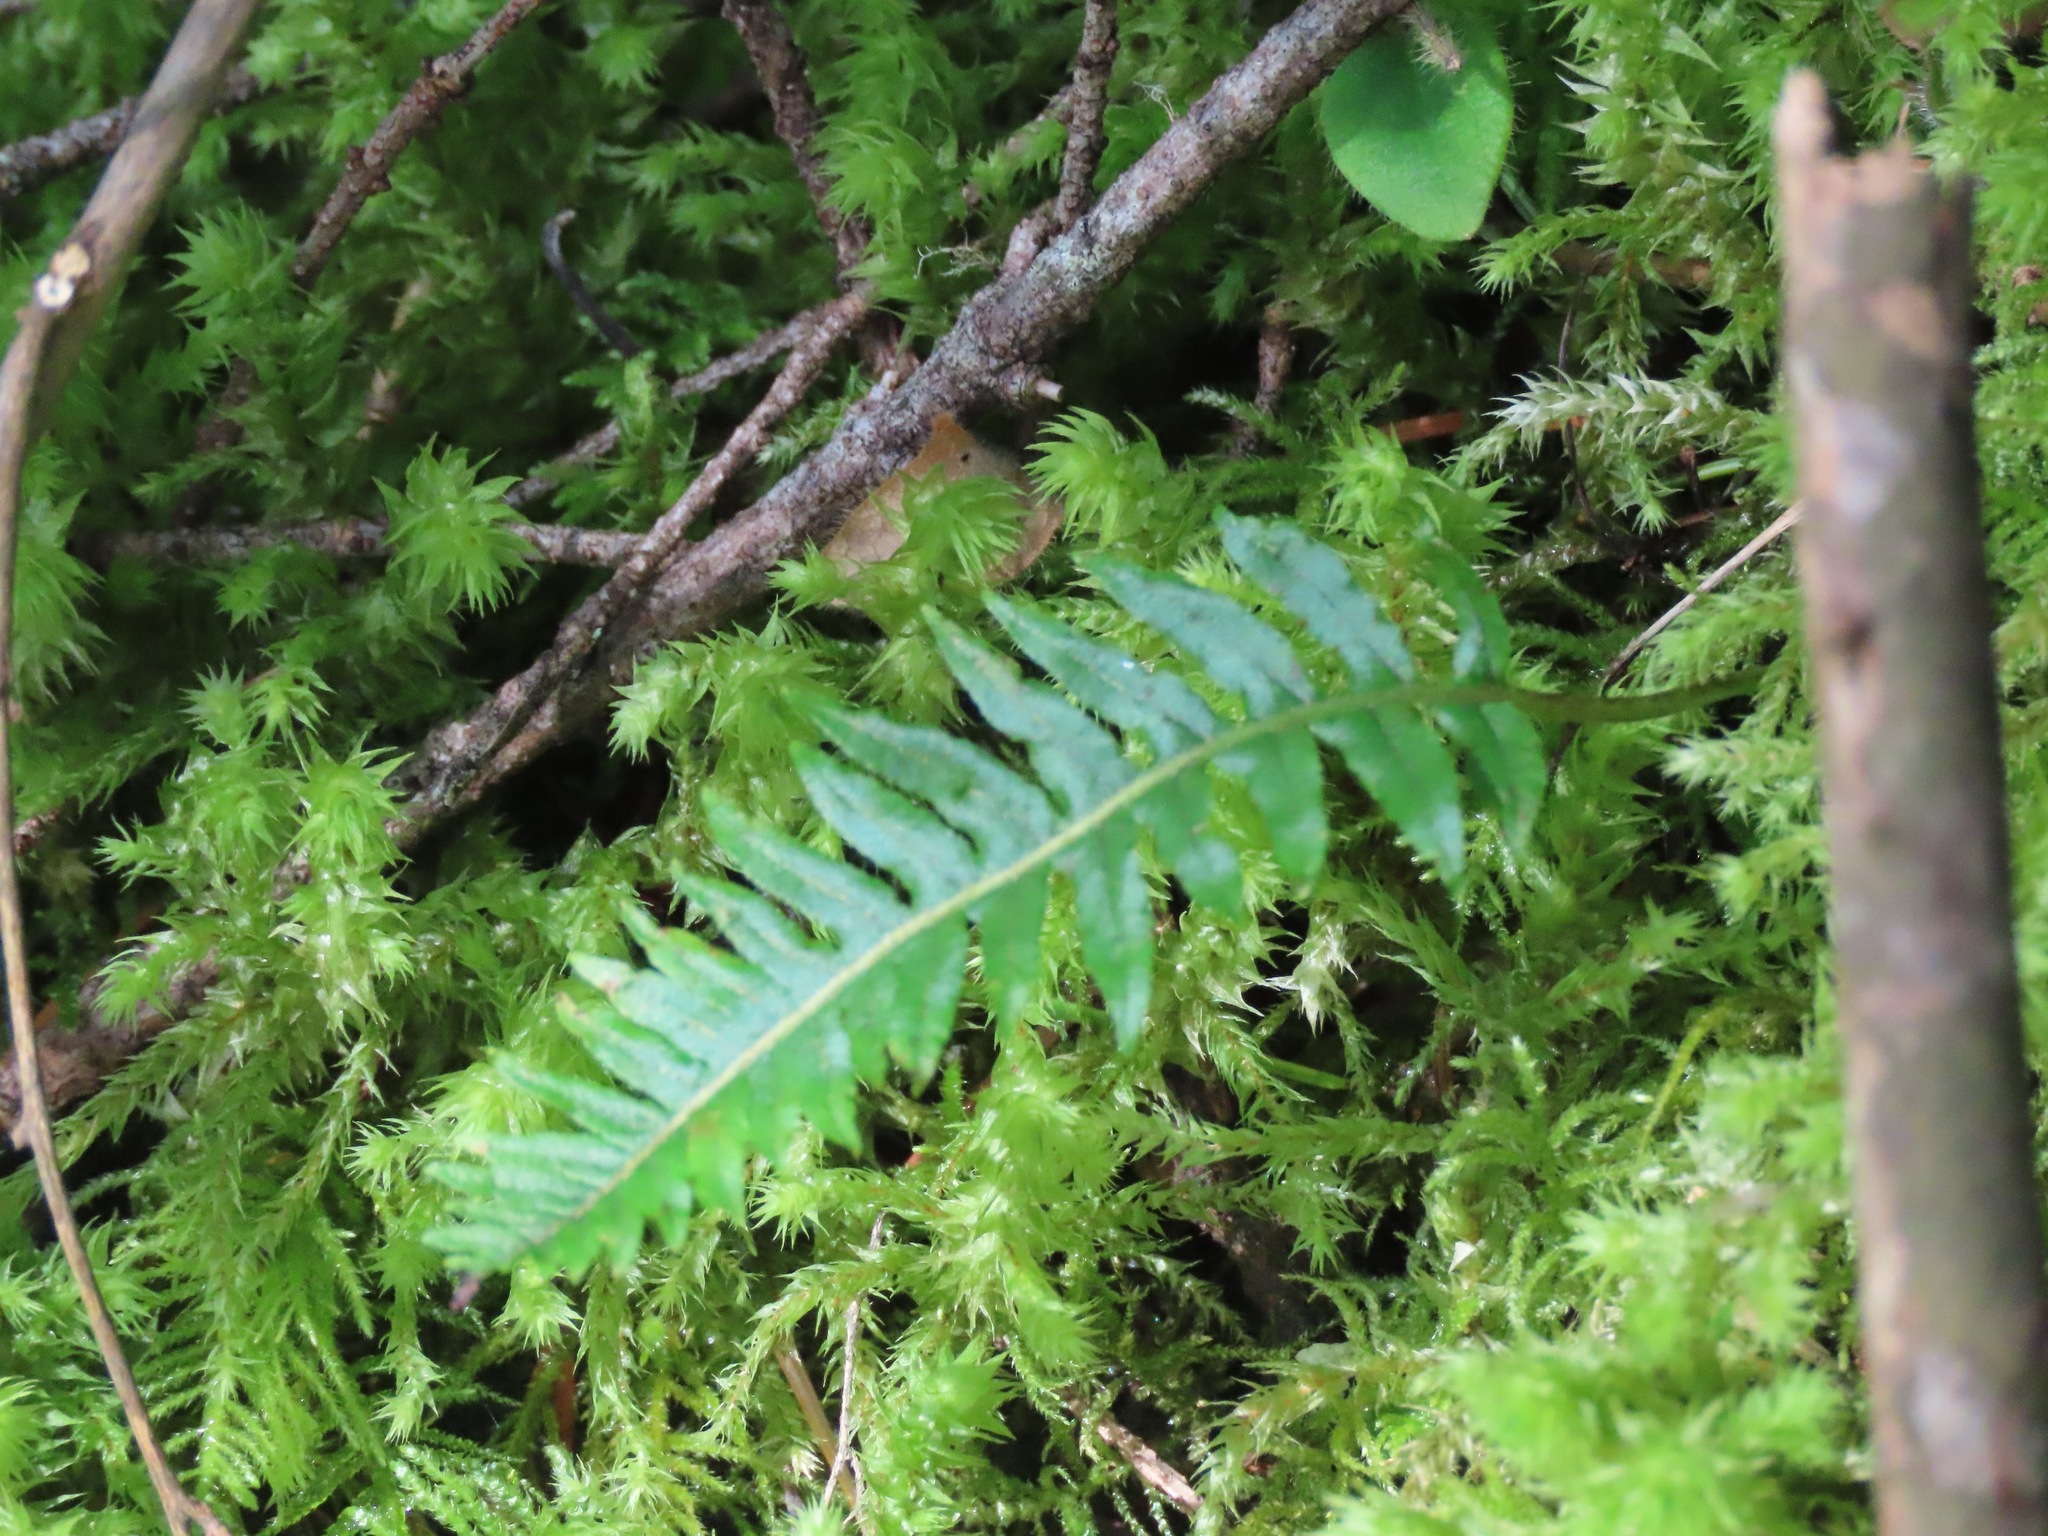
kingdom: Plantae
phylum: Tracheophyta
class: Polypodiopsida
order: Polypodiales
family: Polypodiaceae
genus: Polypodium
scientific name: Polypodium glycyrrhiza
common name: Licorice fern
